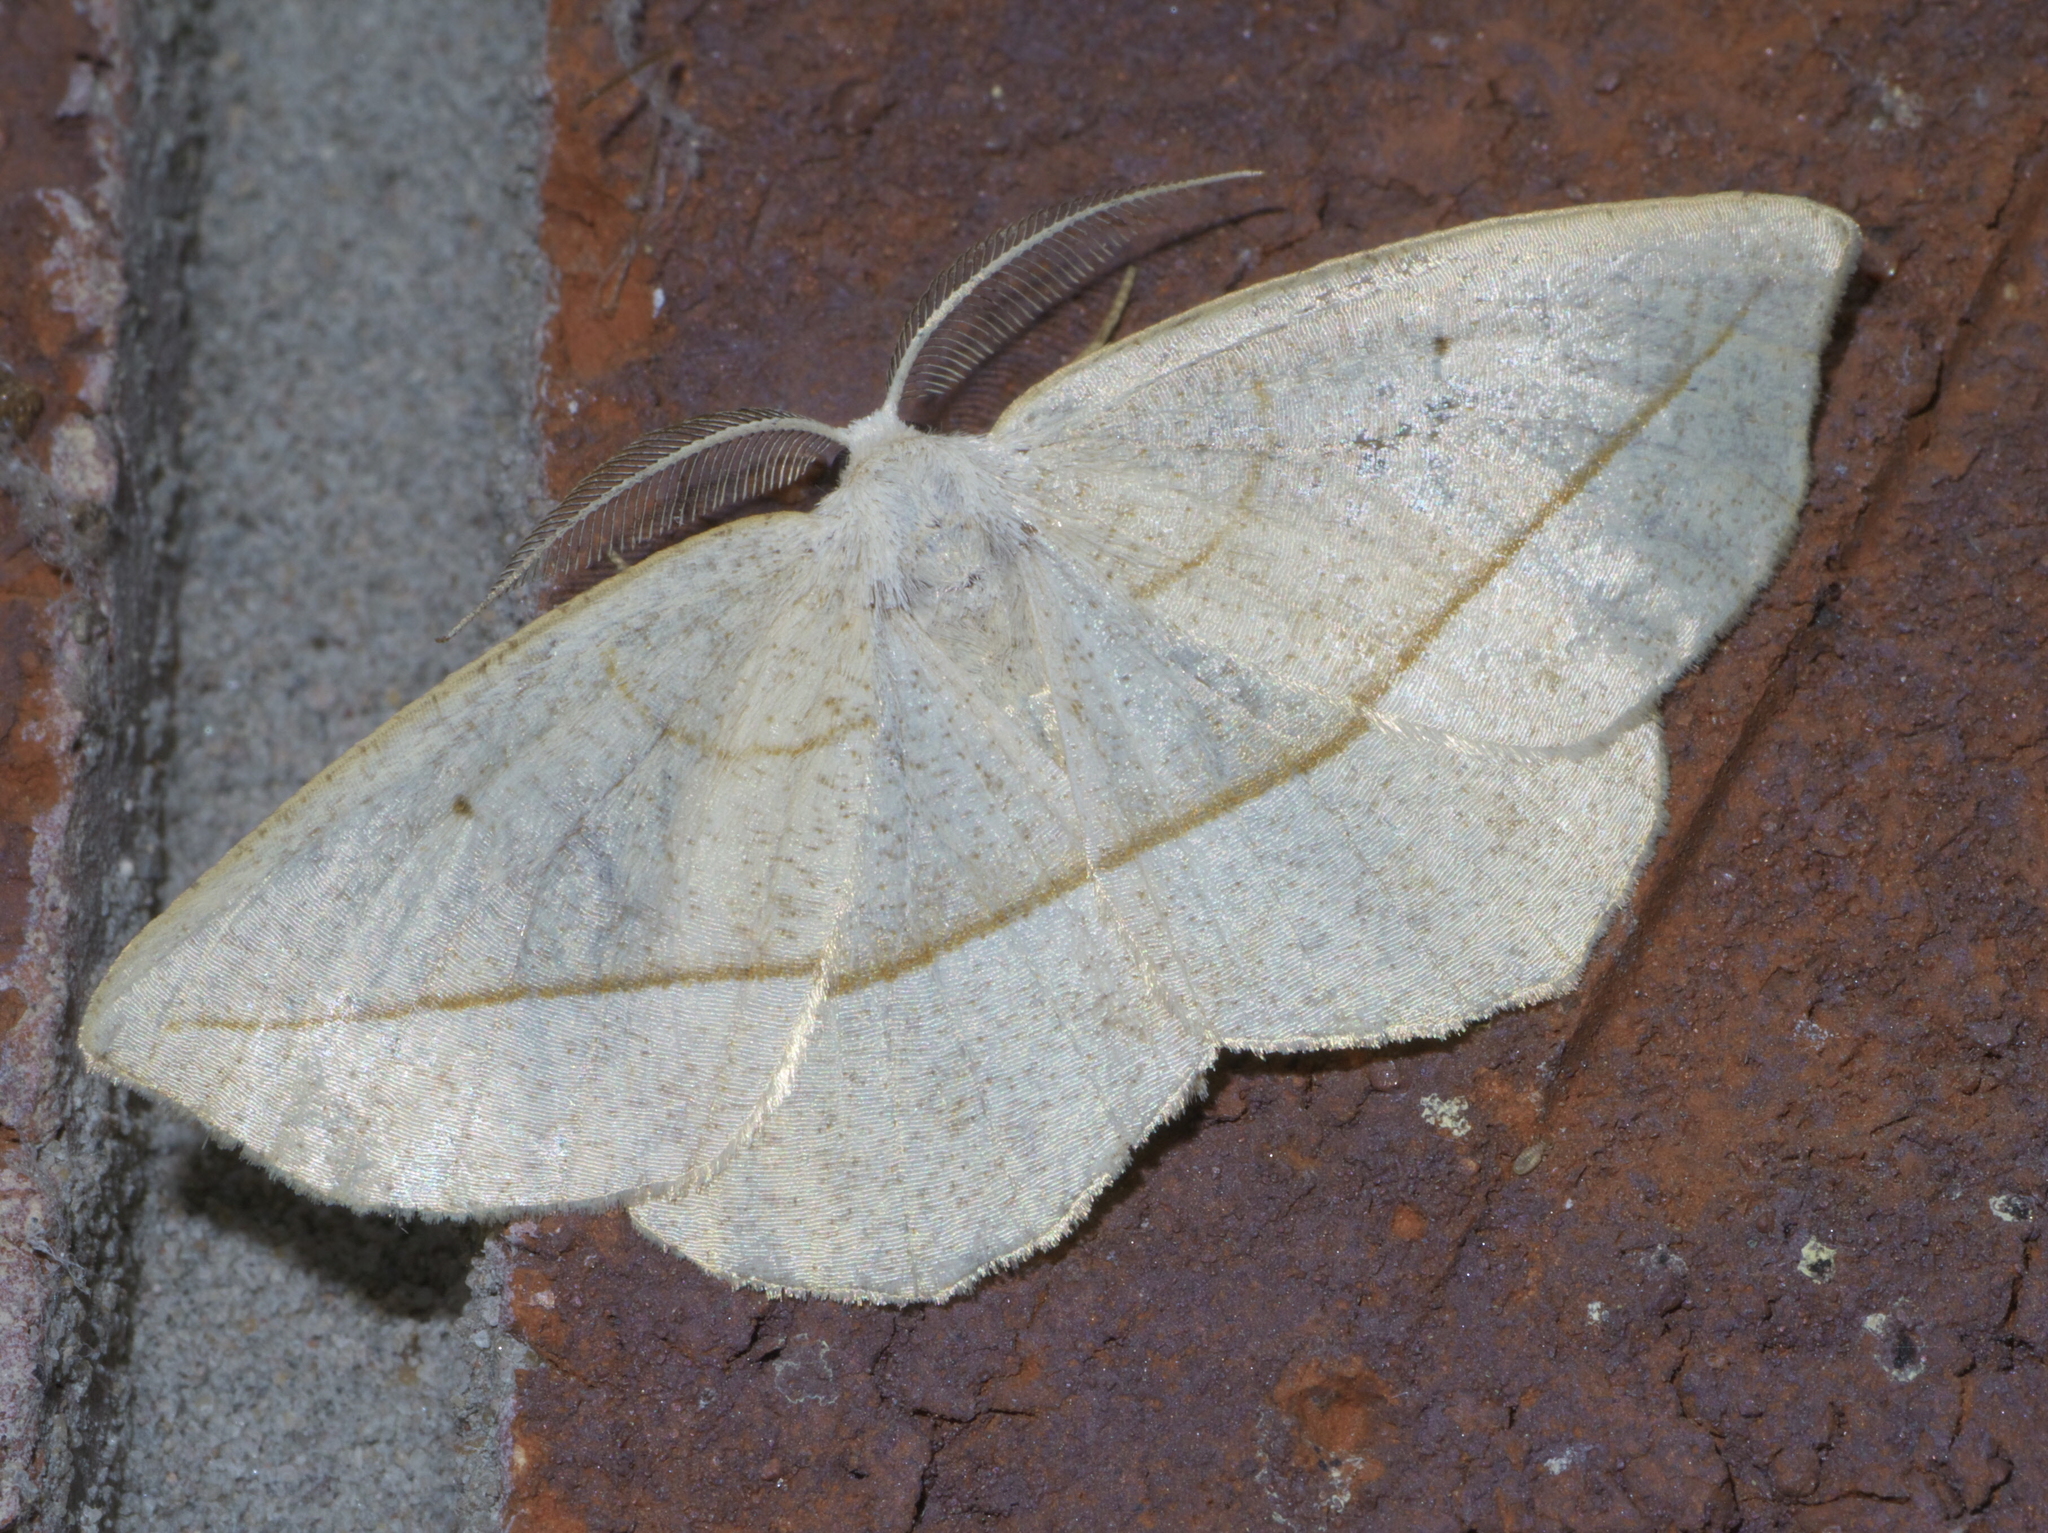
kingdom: Animalia
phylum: Arthropoda
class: Insecta
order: Lepidoptera
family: Geometridae
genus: Eusarca
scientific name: Eusarca confusaria
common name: Confused eusarca
